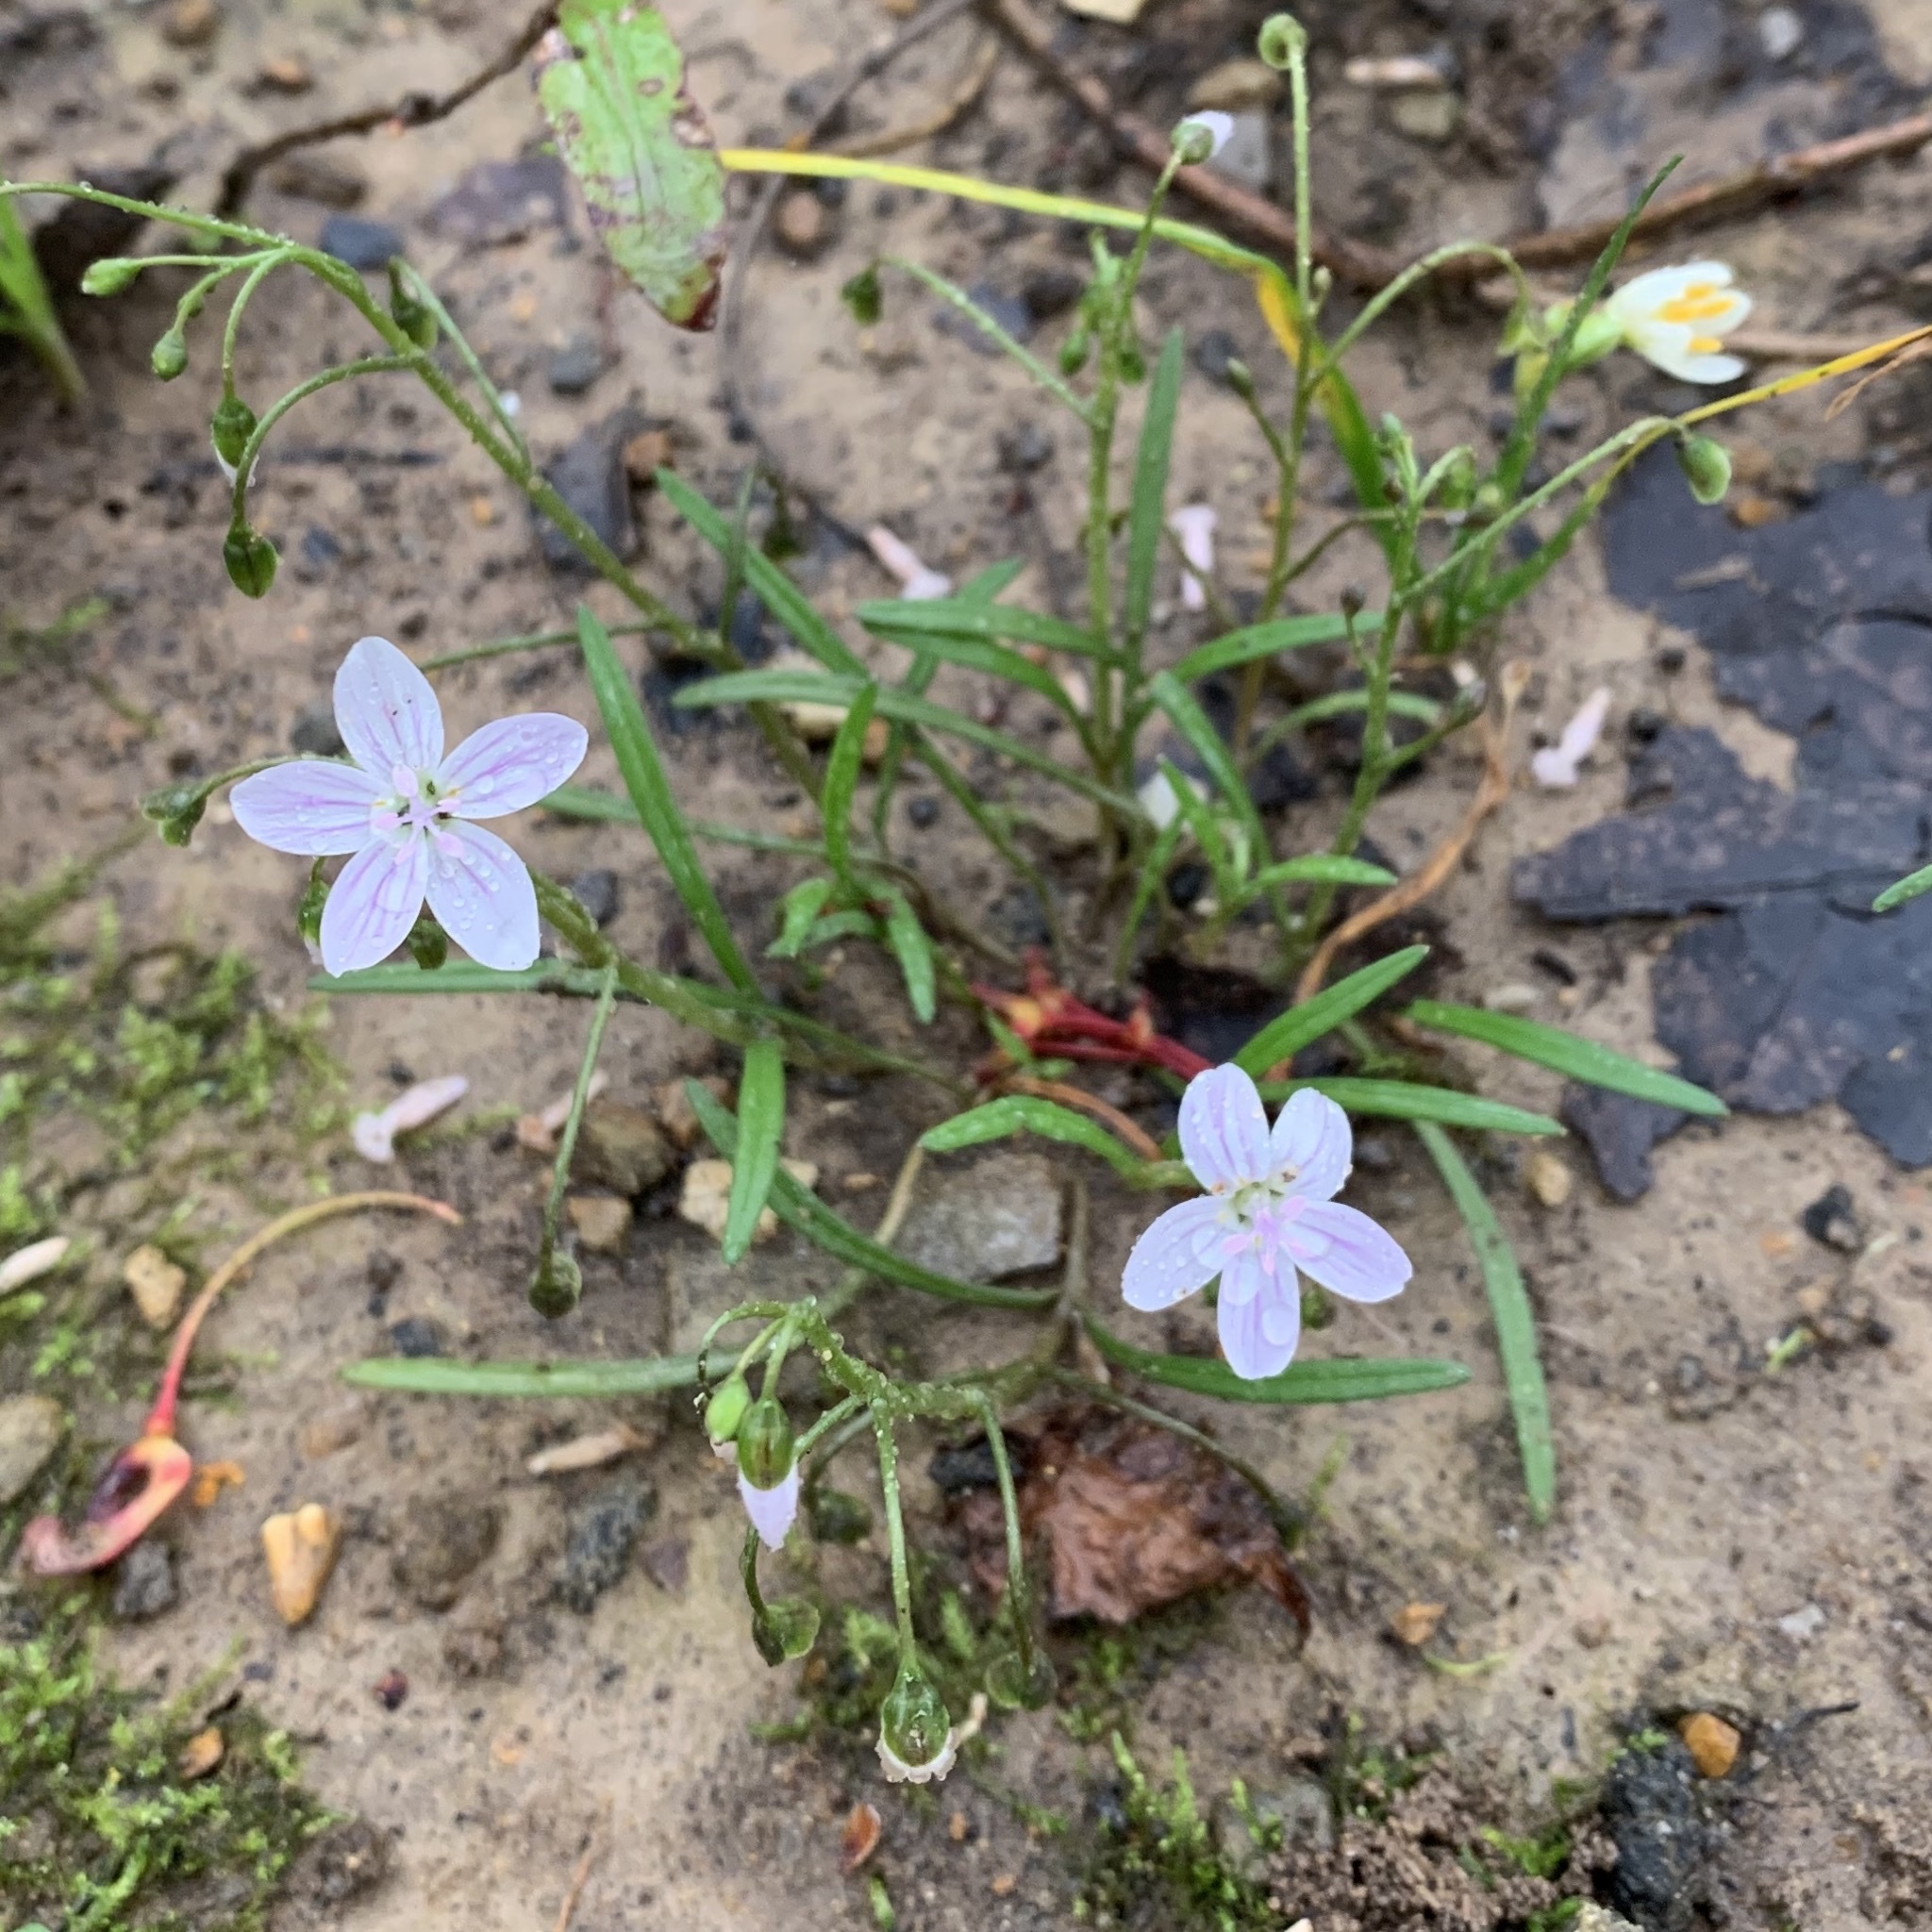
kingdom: Plantae
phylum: Tracheophyta
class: Magnoliopsida
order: Caryophyllales
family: Montiaceae
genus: Claytonia
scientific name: Claytonia virginica
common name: Virginia springbeauty
